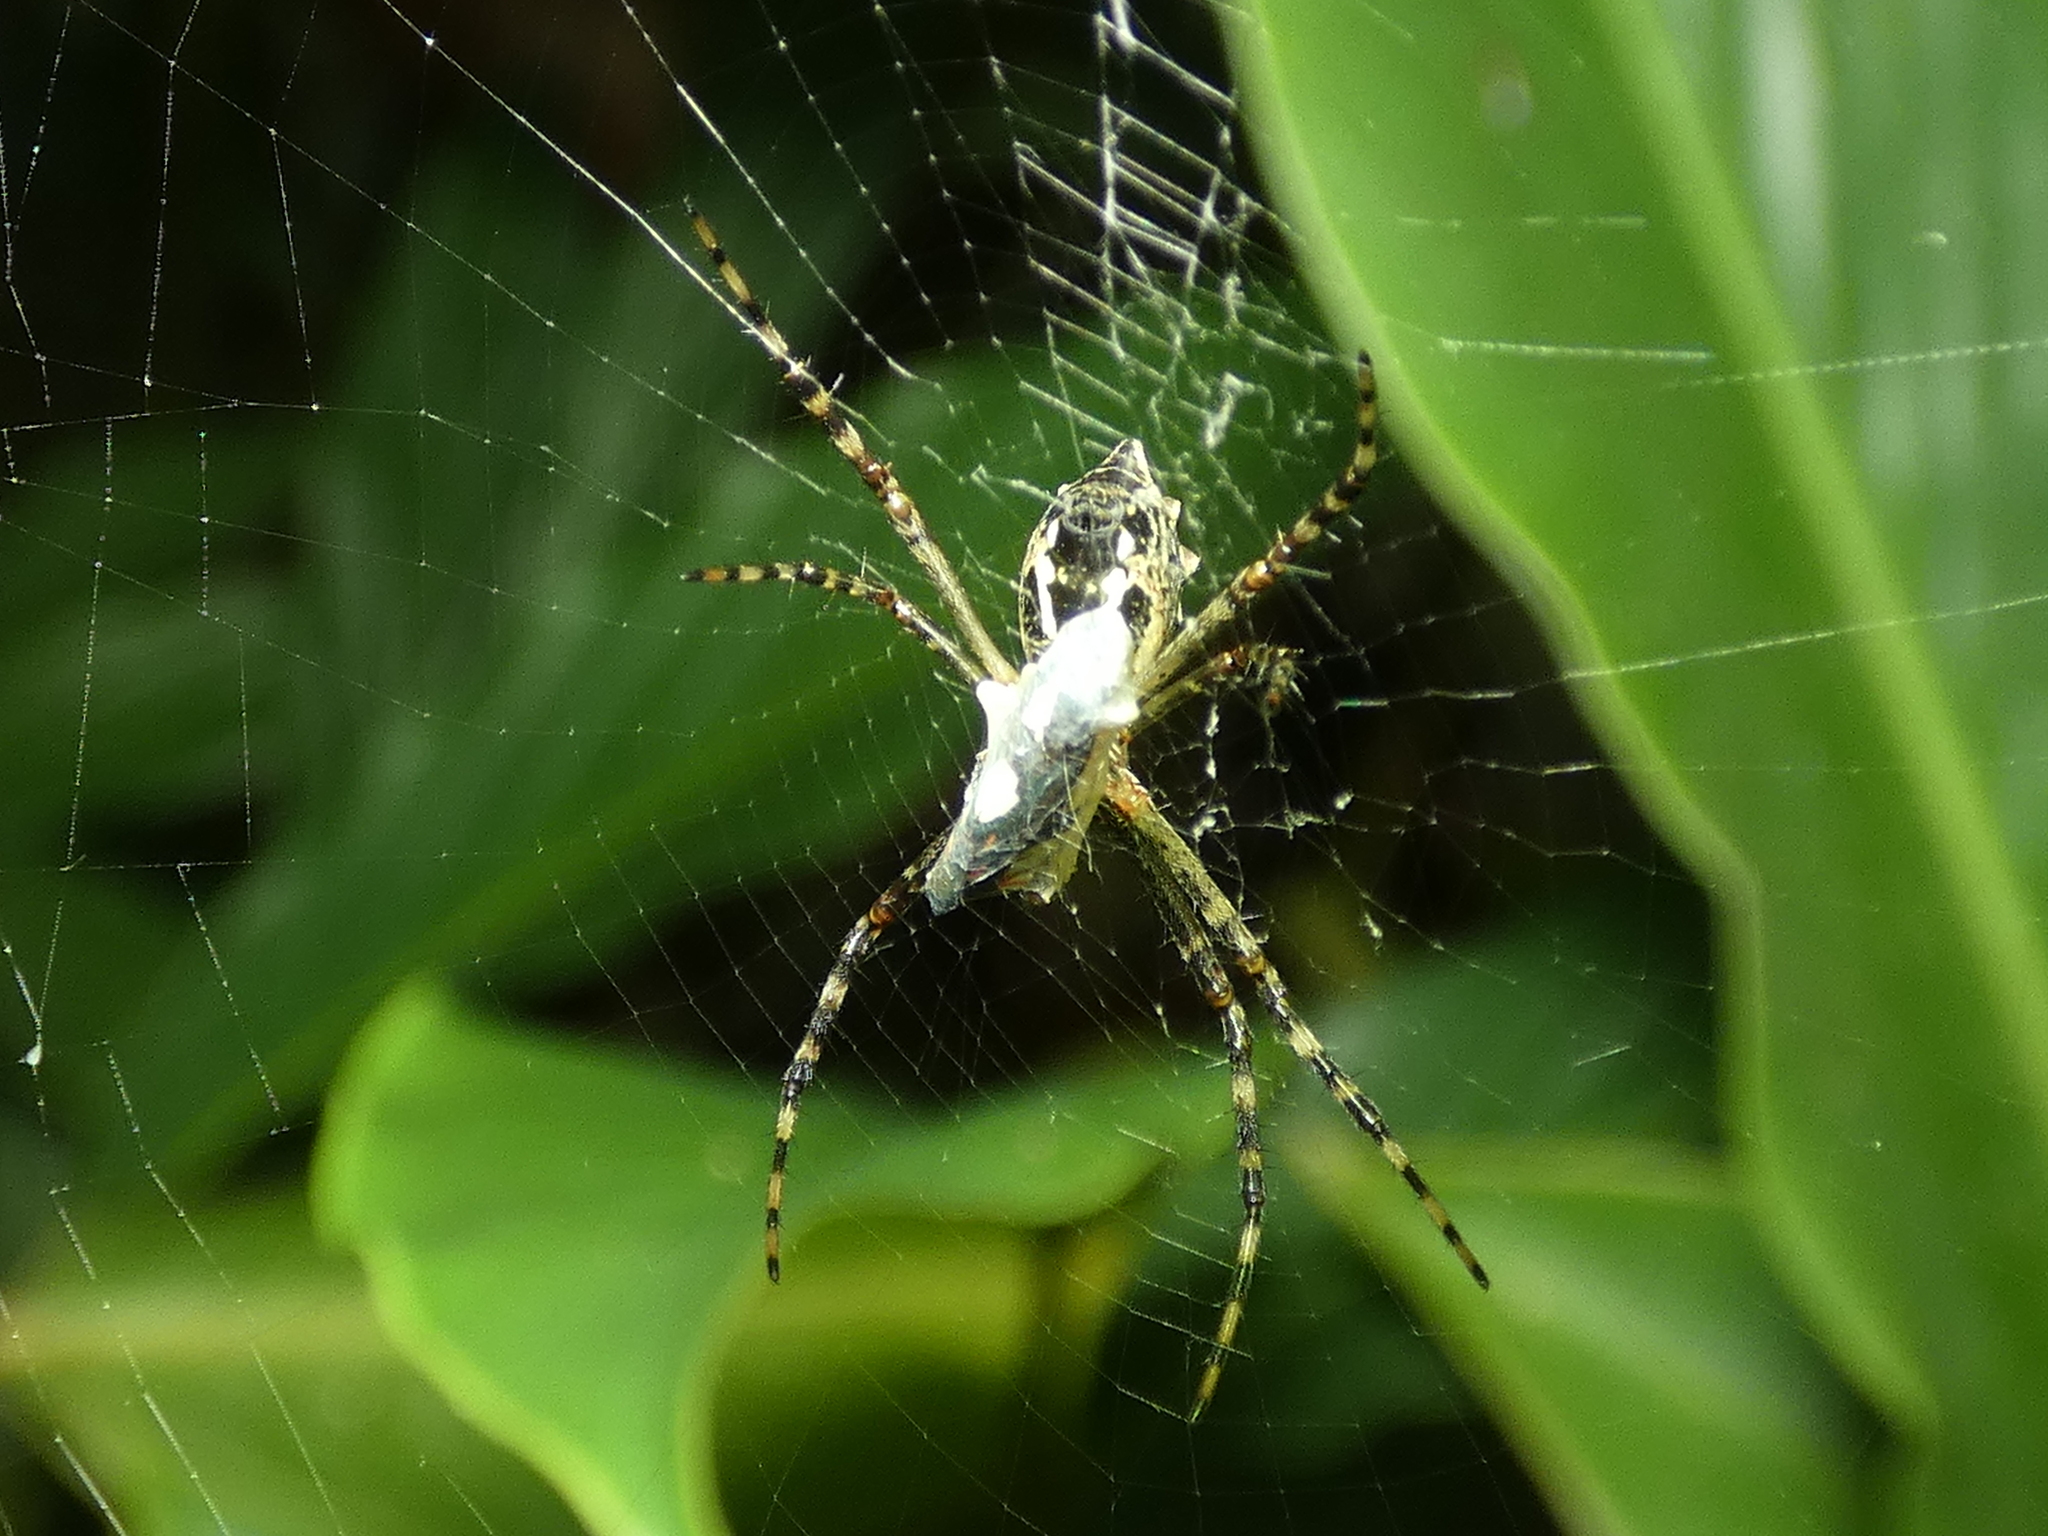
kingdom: Animalia
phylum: Arthropoda
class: Arachnida
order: Araneae
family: Araneidae
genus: Argiope
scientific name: Argiope argentata
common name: Orb weavers
